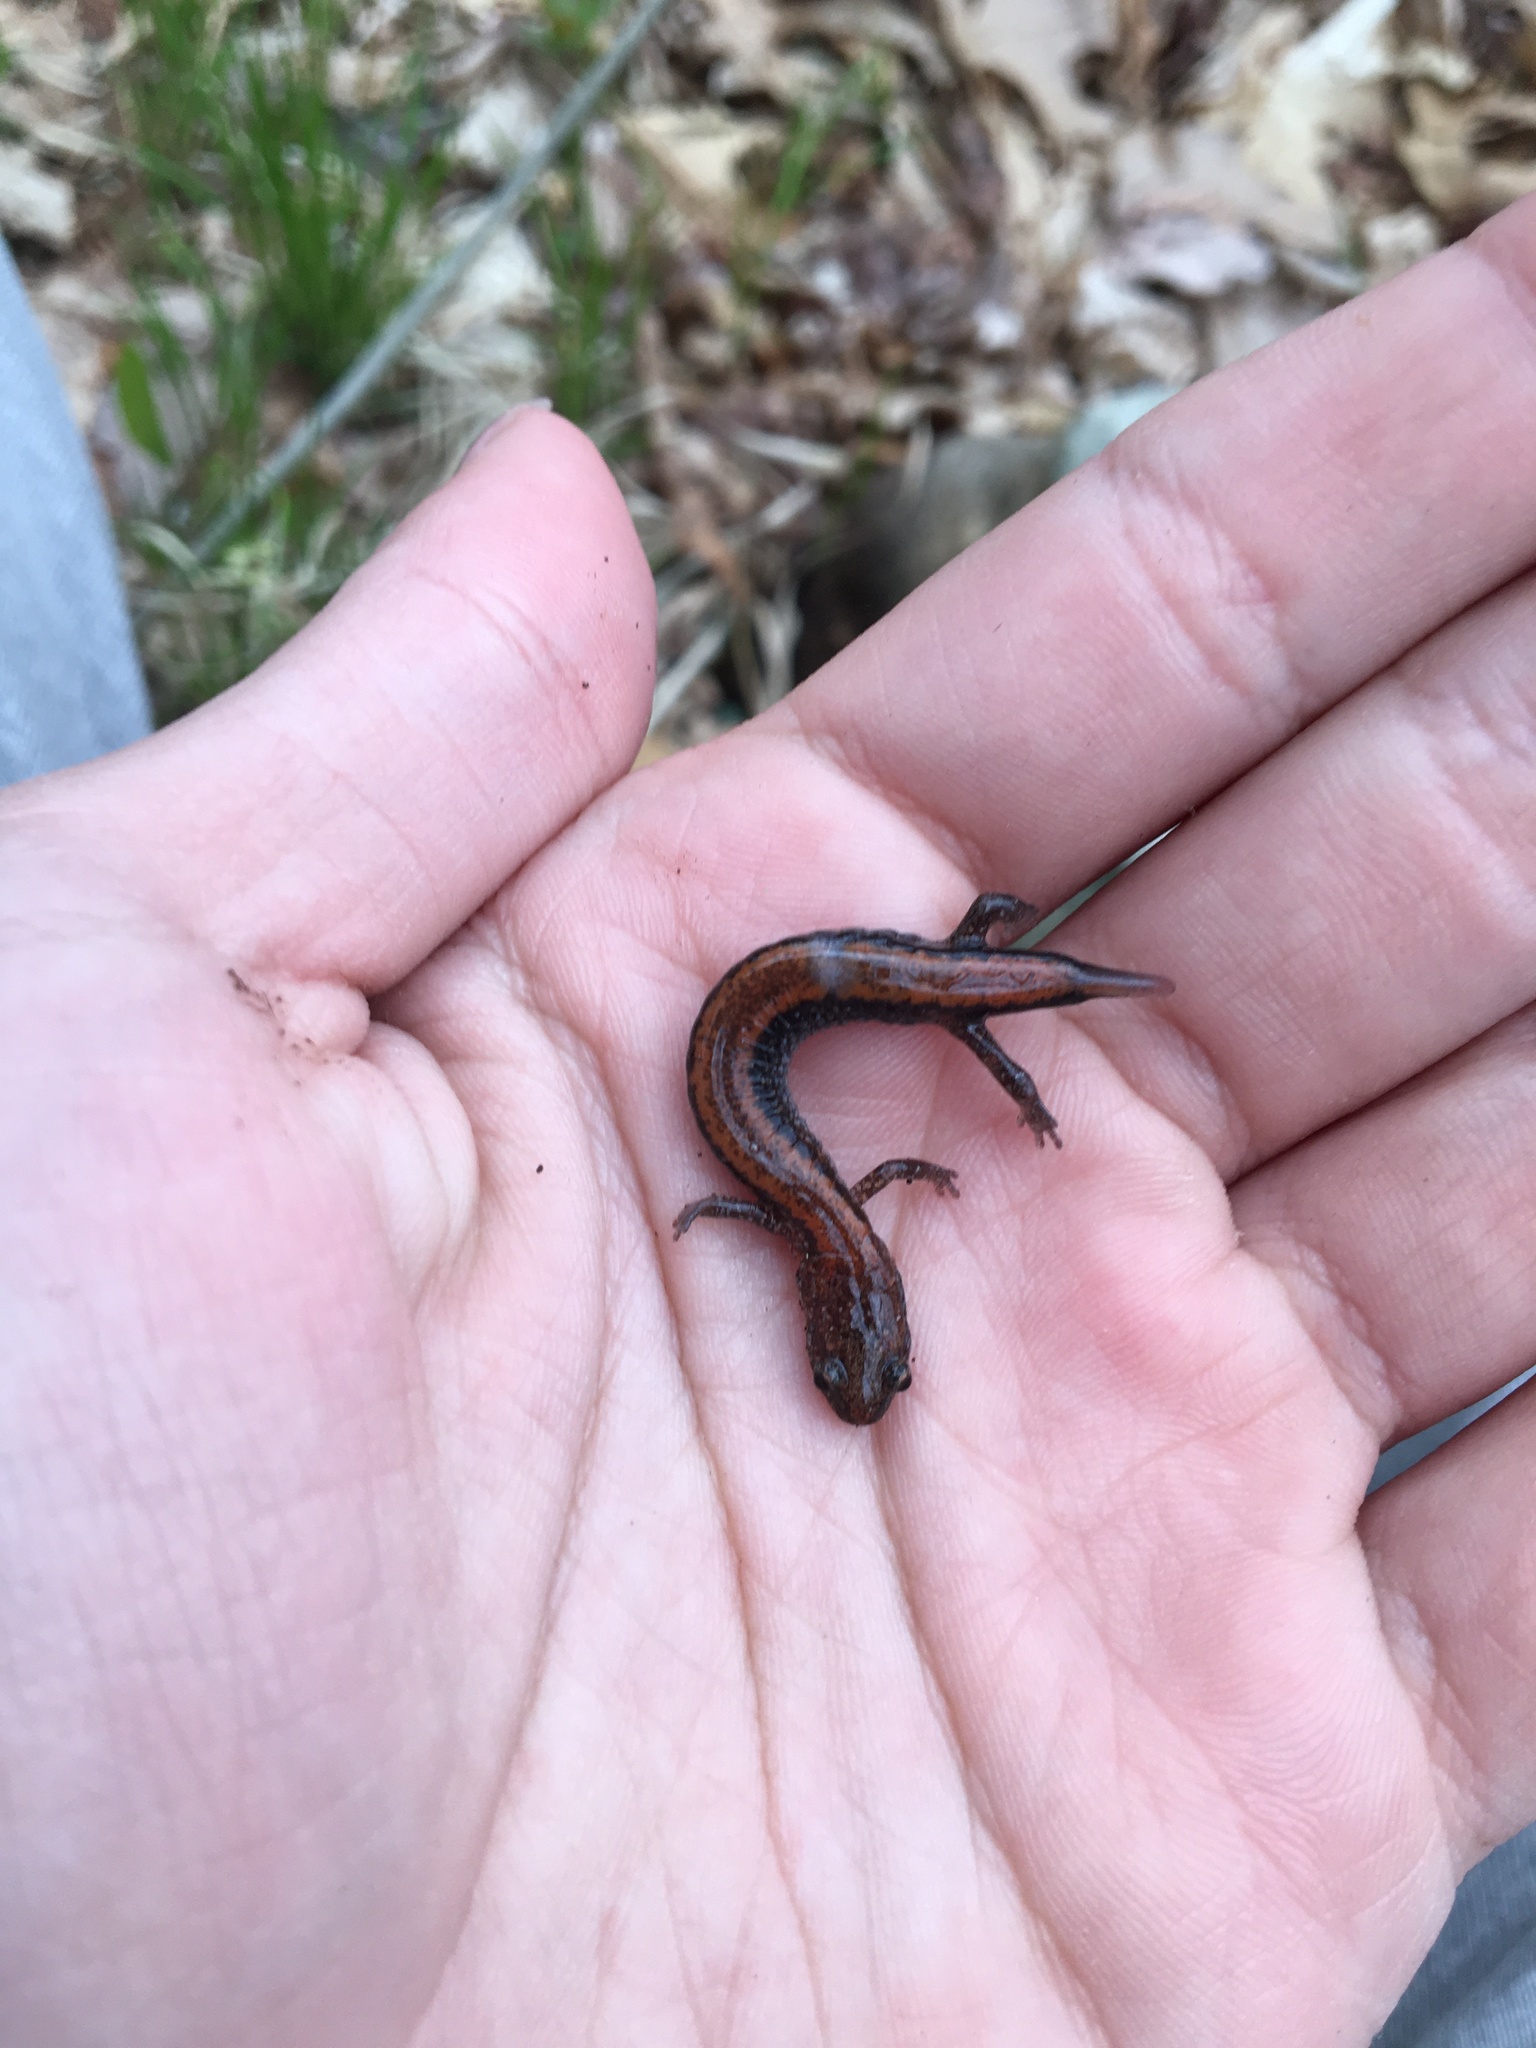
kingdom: Animalia
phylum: Chordata
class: Amphibia
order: Caudata
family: Plethodontidae
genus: Plethodon
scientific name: Plethodon cinereus
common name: Redback salamander
